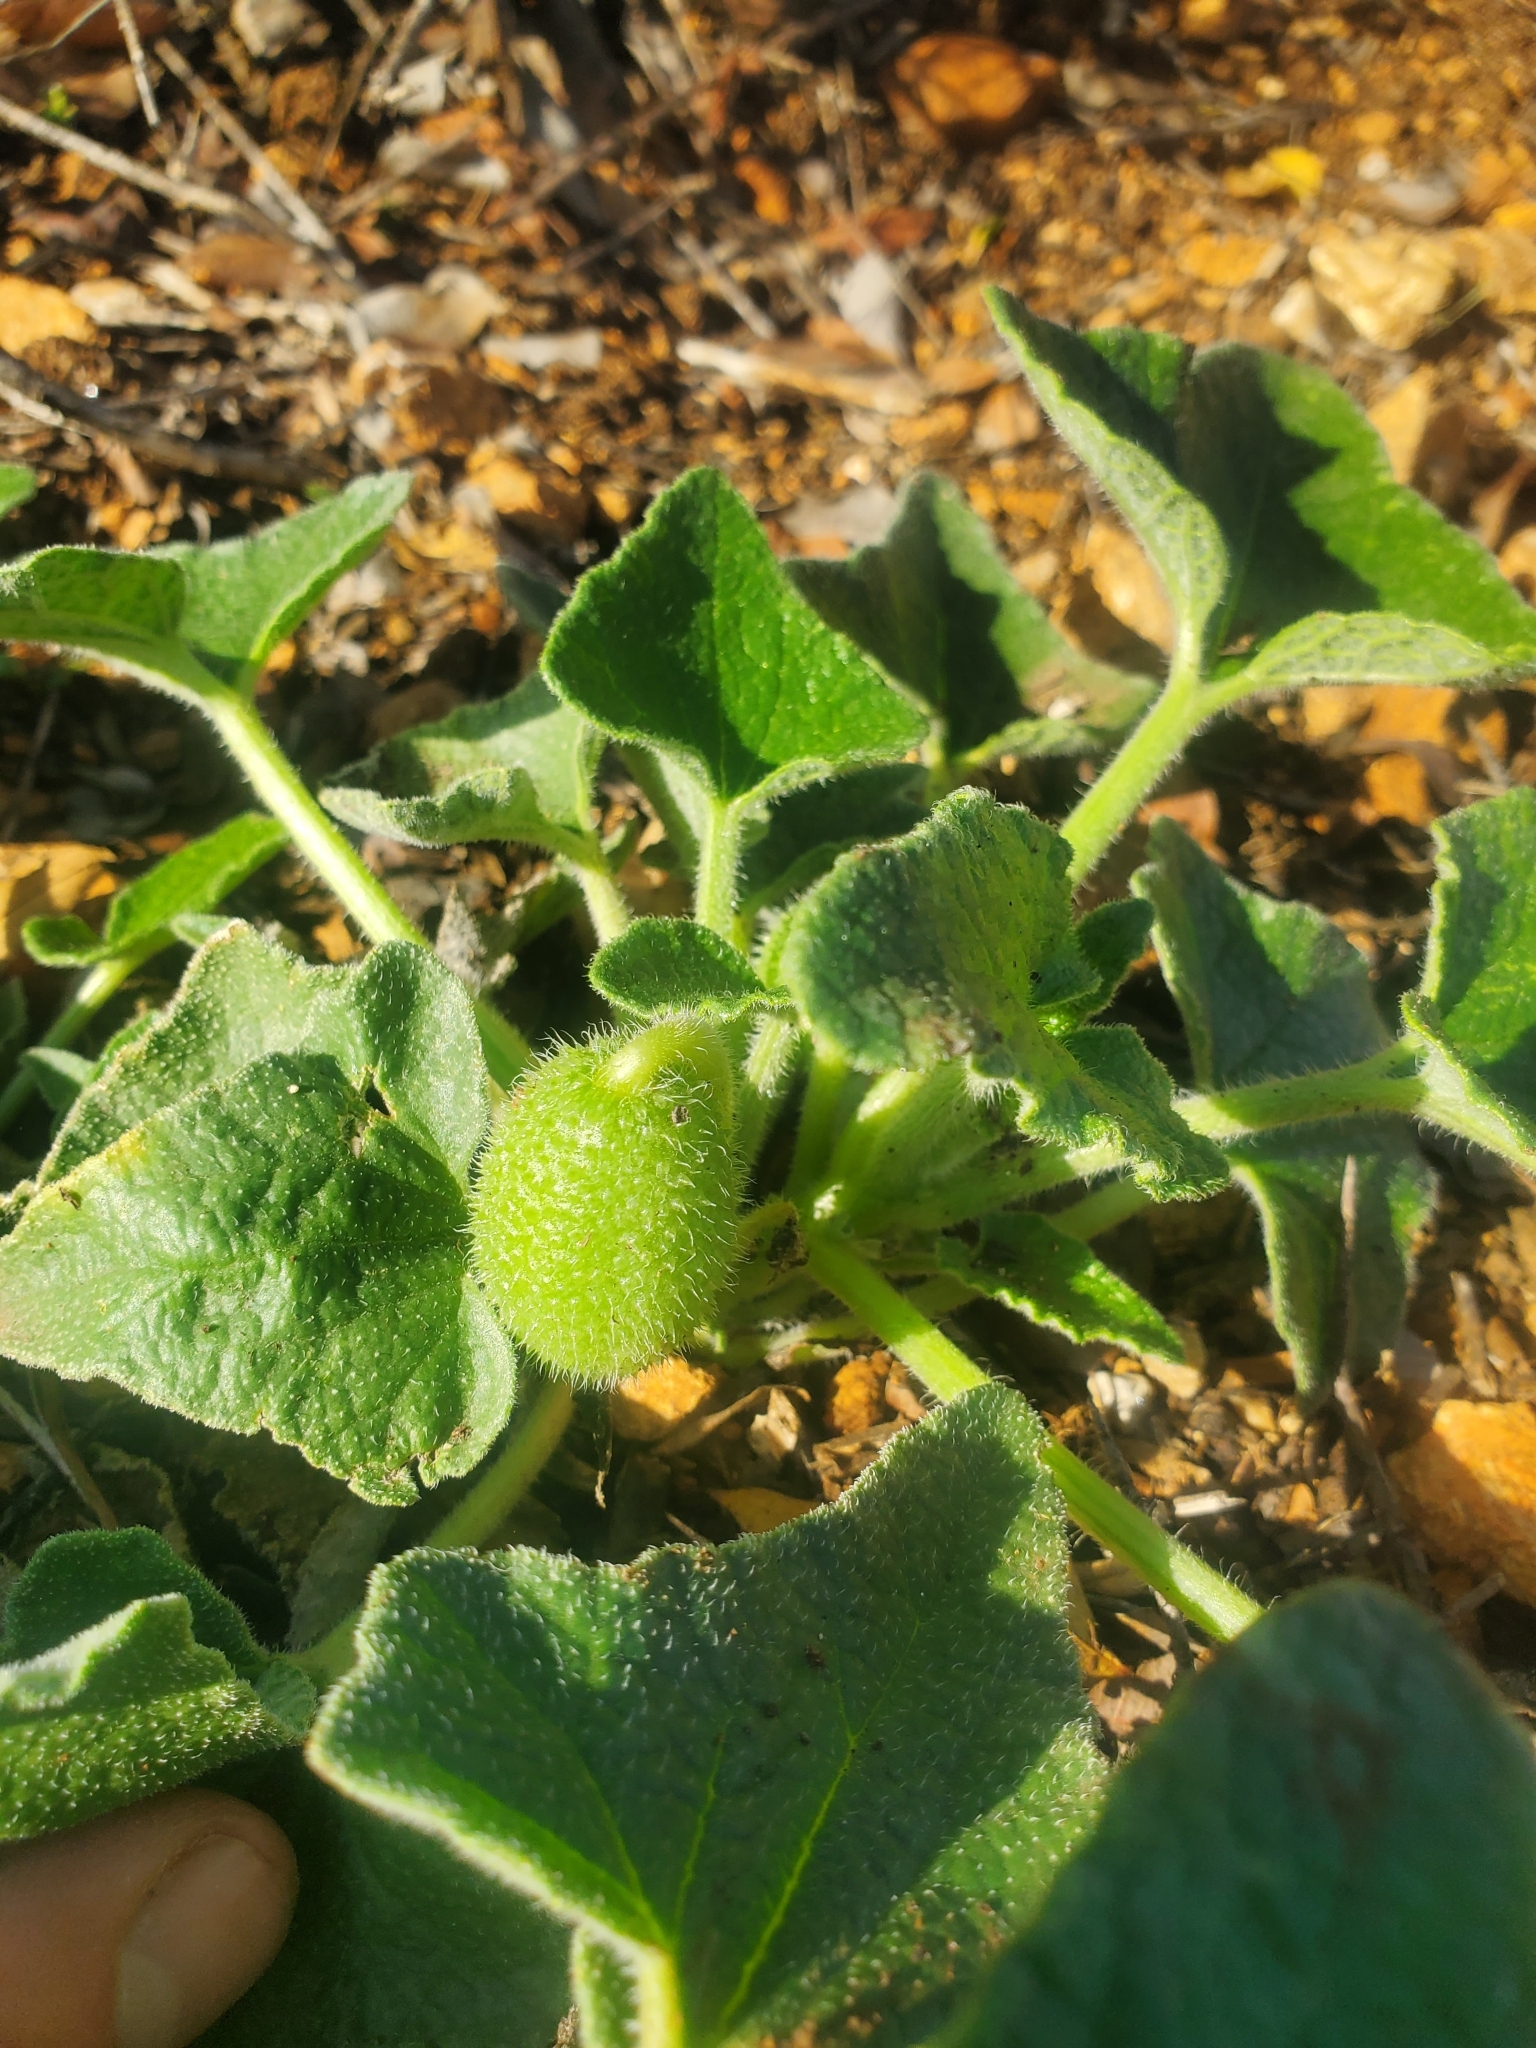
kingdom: Plantae
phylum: Tracheophyta
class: Magnoliopsida
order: Cucurbitales
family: Cucurbitaceae
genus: Ecballium
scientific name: Ecballium elaterium
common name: Squirting cucumber
